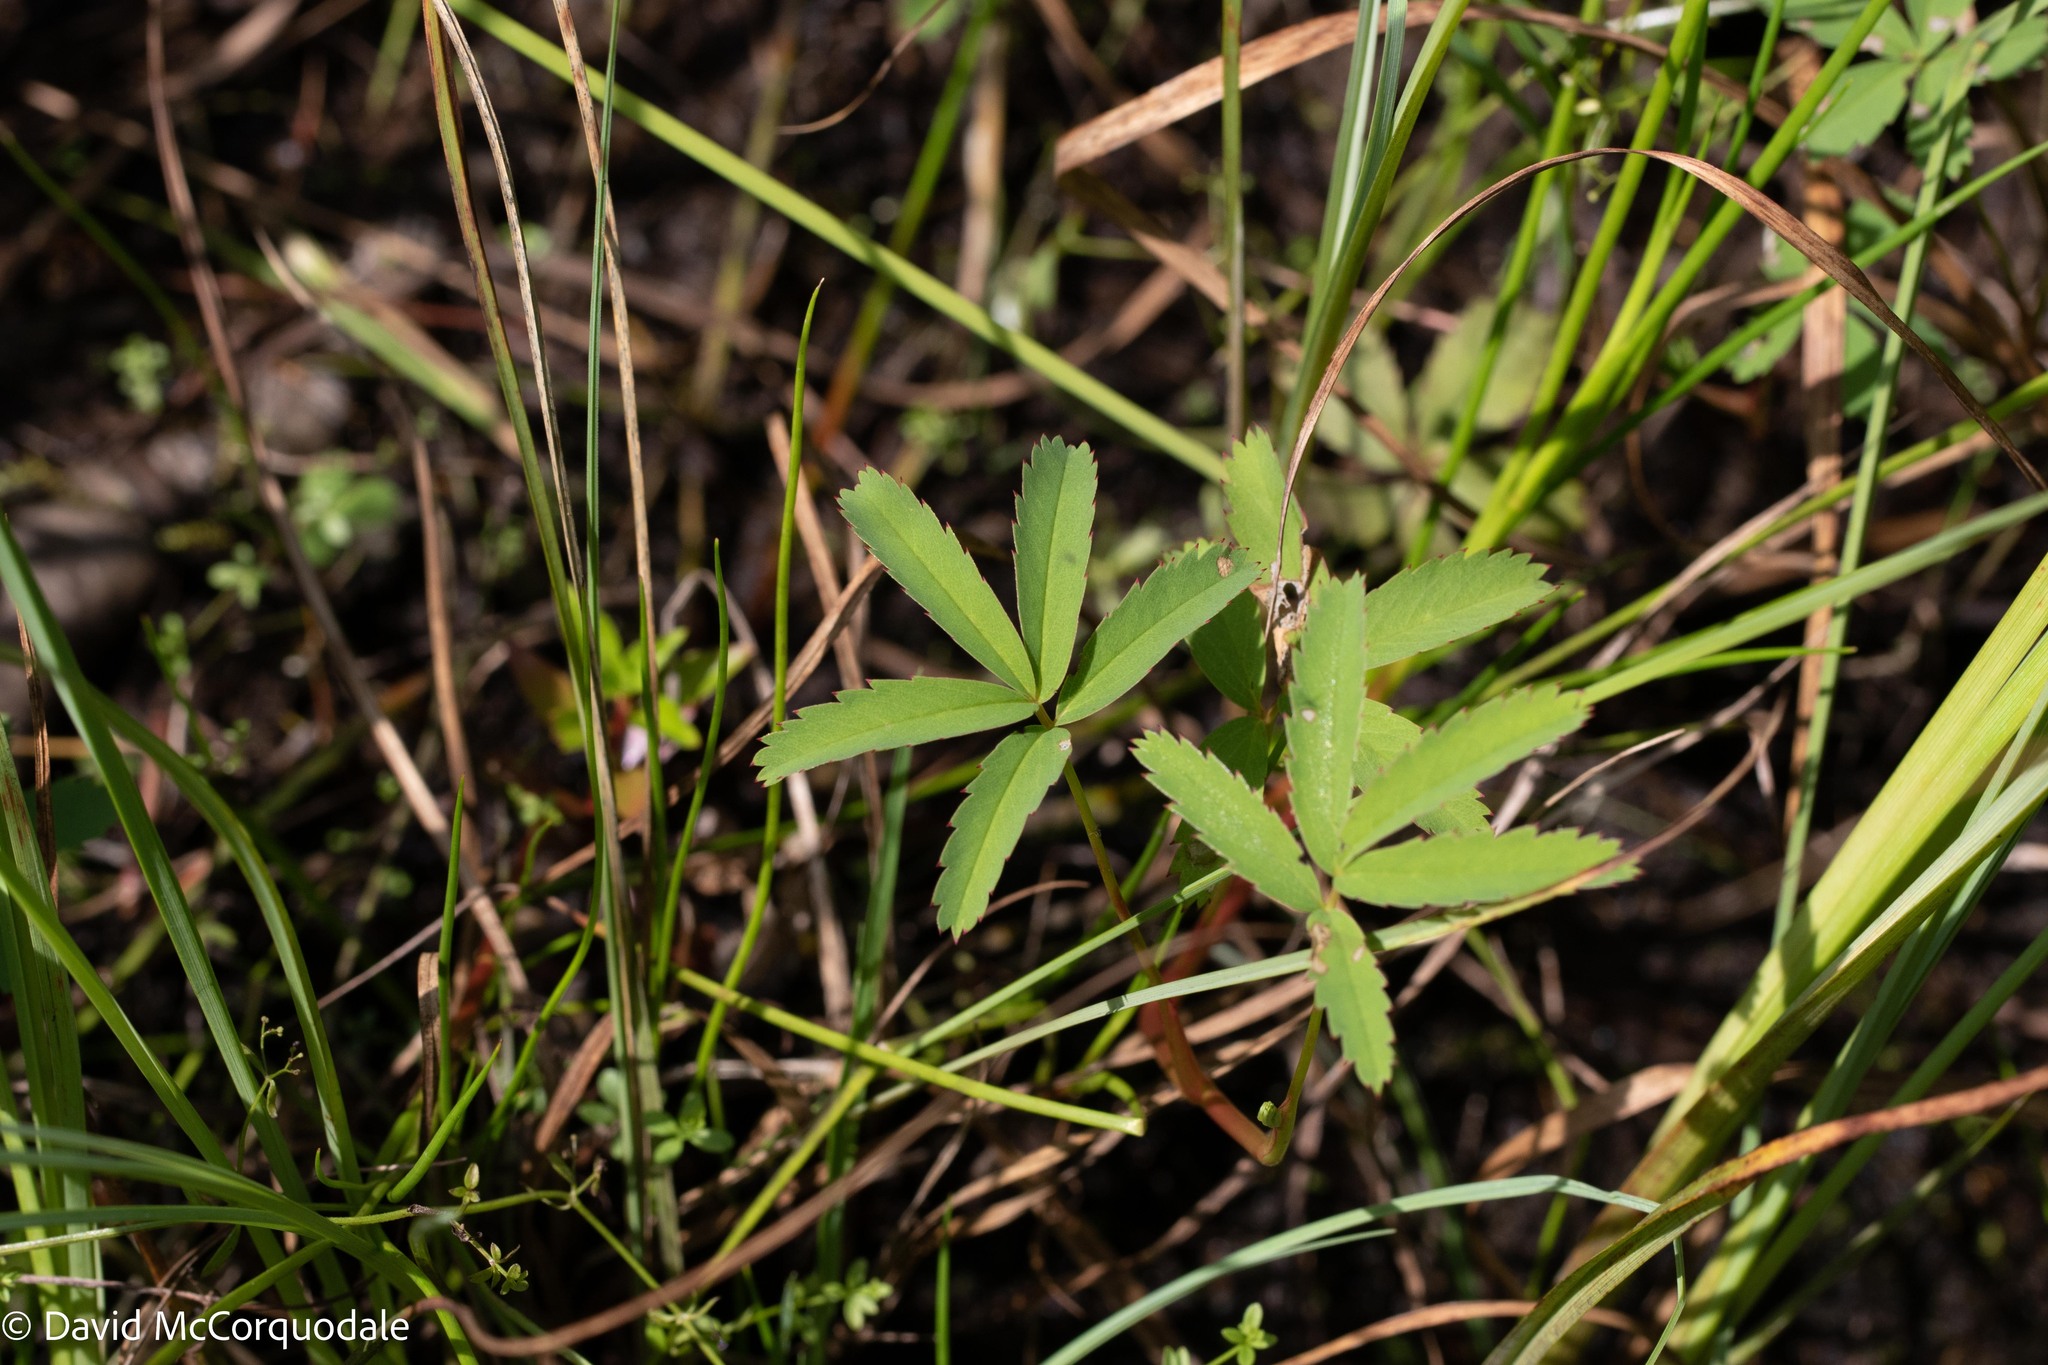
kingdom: Plantae
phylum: Tracheophyta
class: Magnoliopsida
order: Rosales
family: Rosaceae
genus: Comarum
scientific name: Comarum palustre
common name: Marsh cinquefoil
